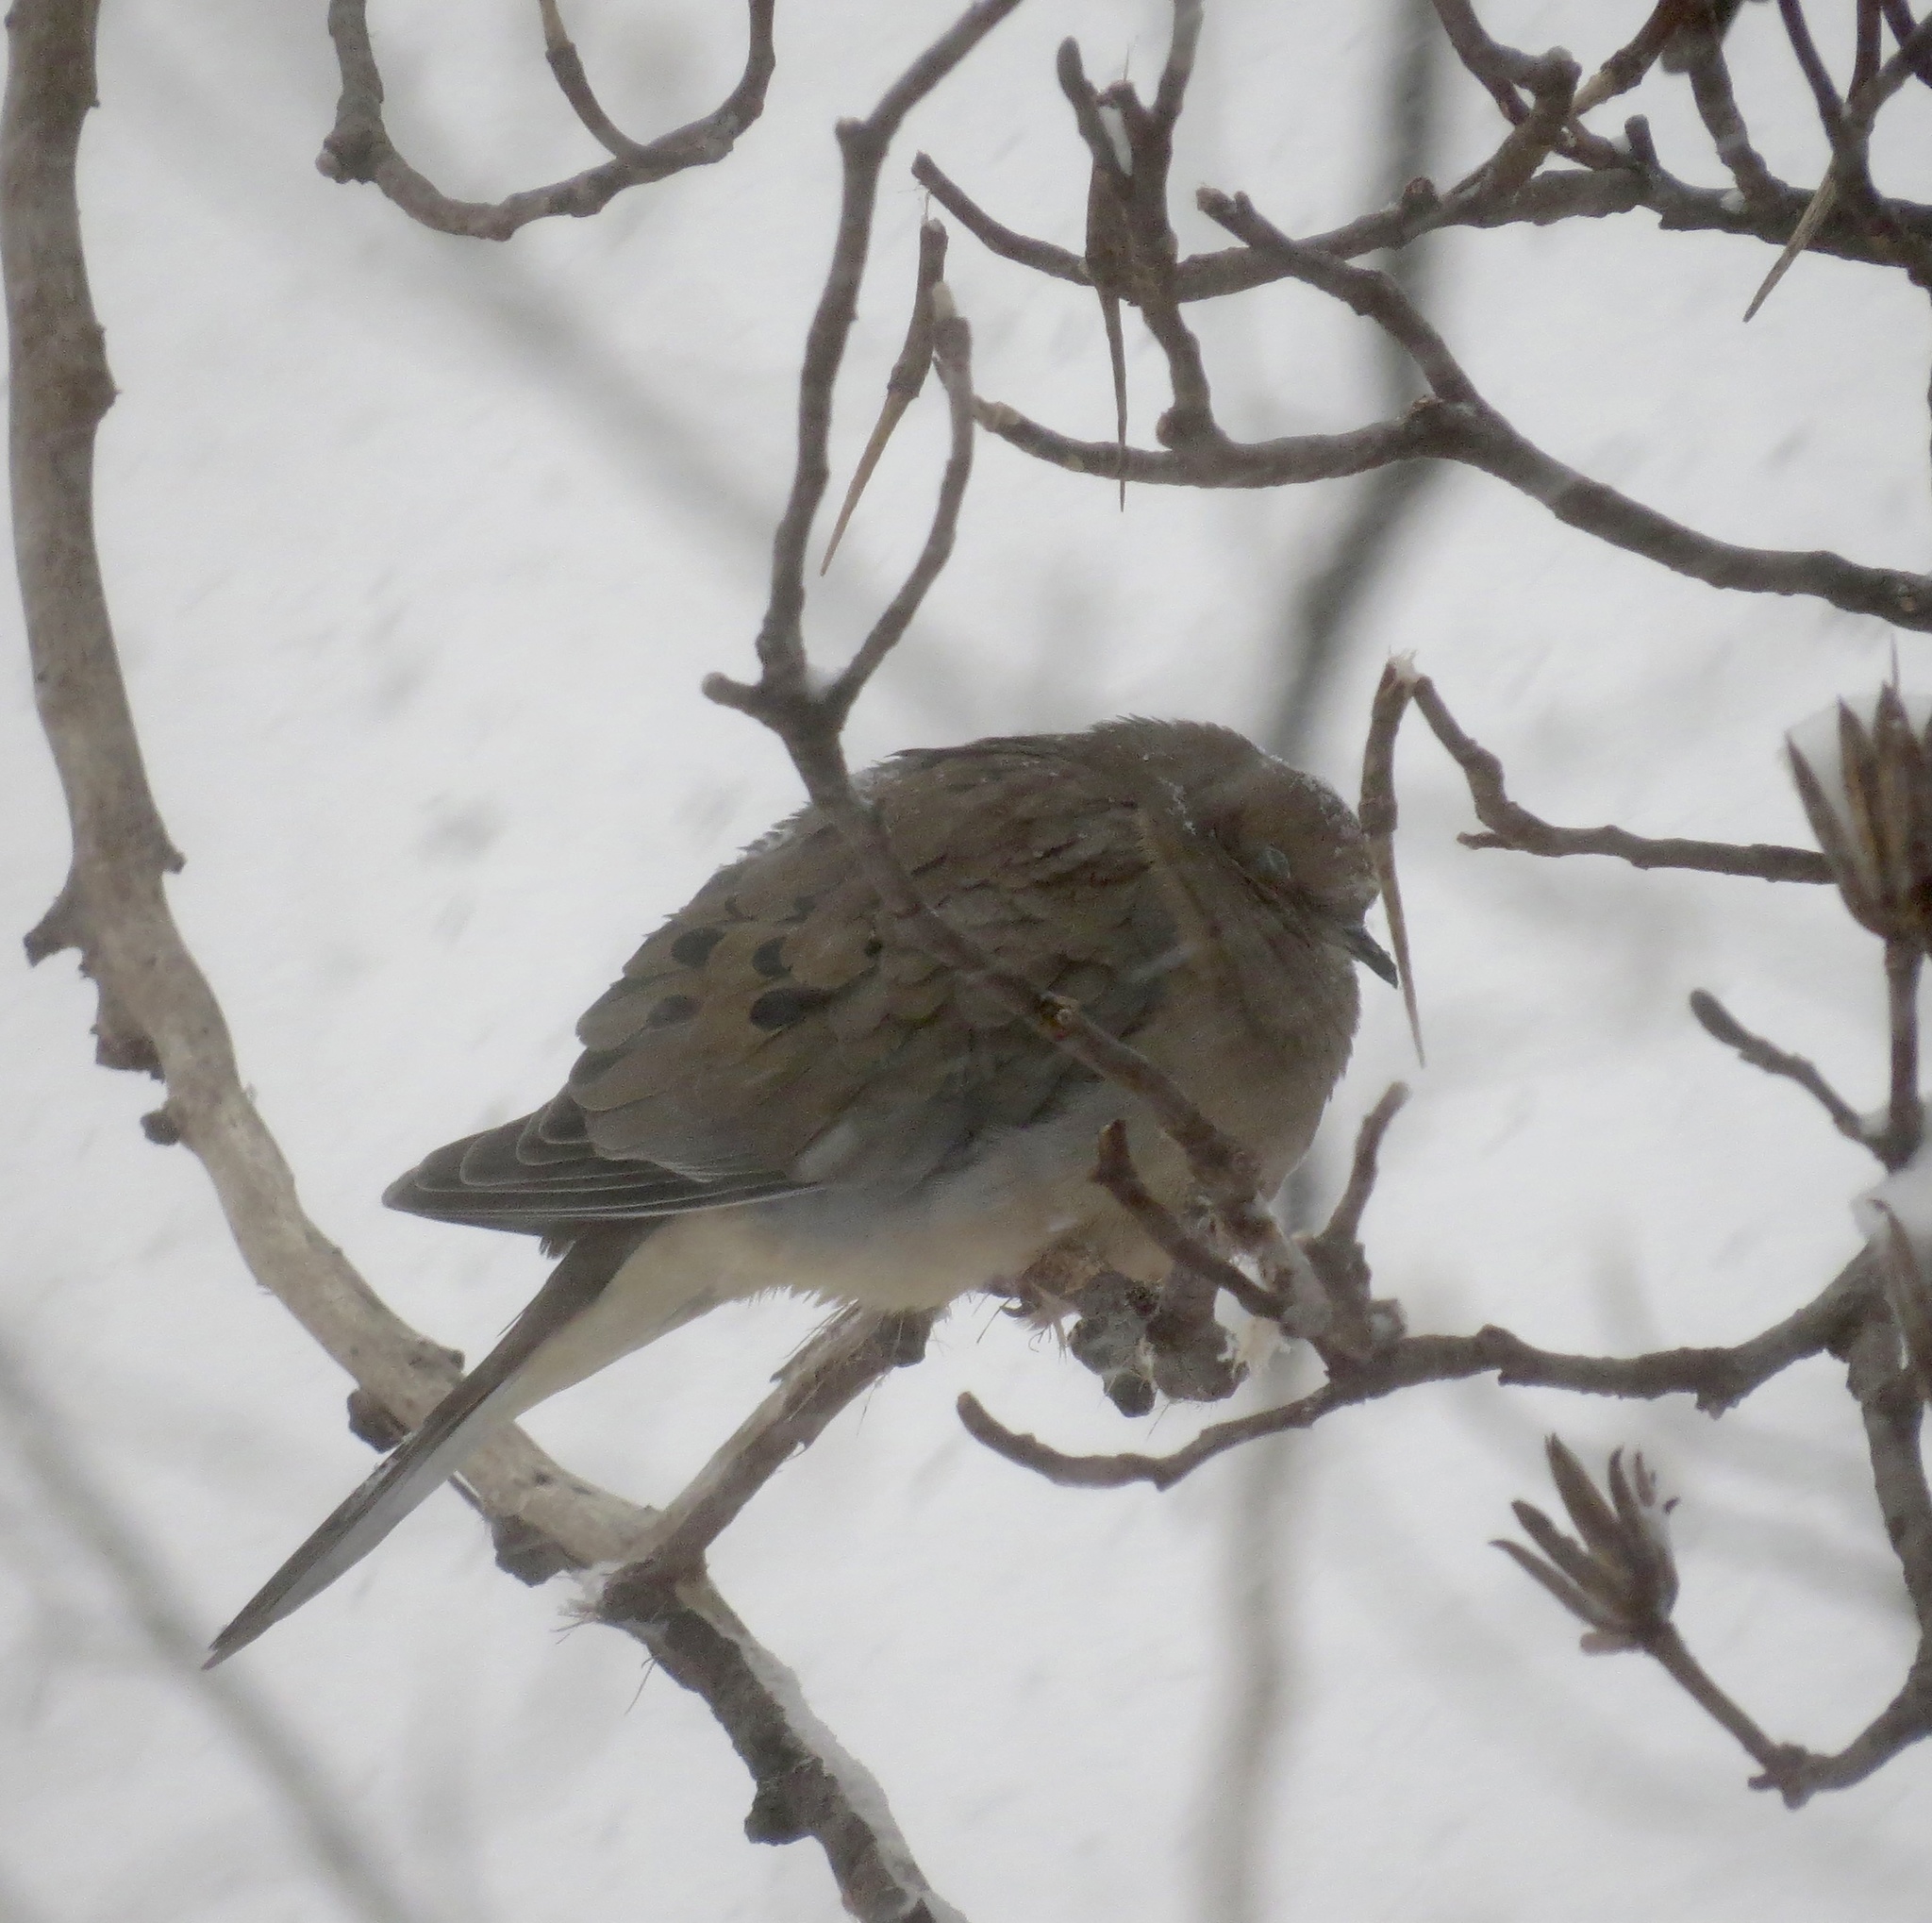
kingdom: Animalia
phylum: Chordata
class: Aves
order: Columbiformes
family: Columbidae
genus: Zenaida
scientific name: Zenaida macroura
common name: Mourning dove
